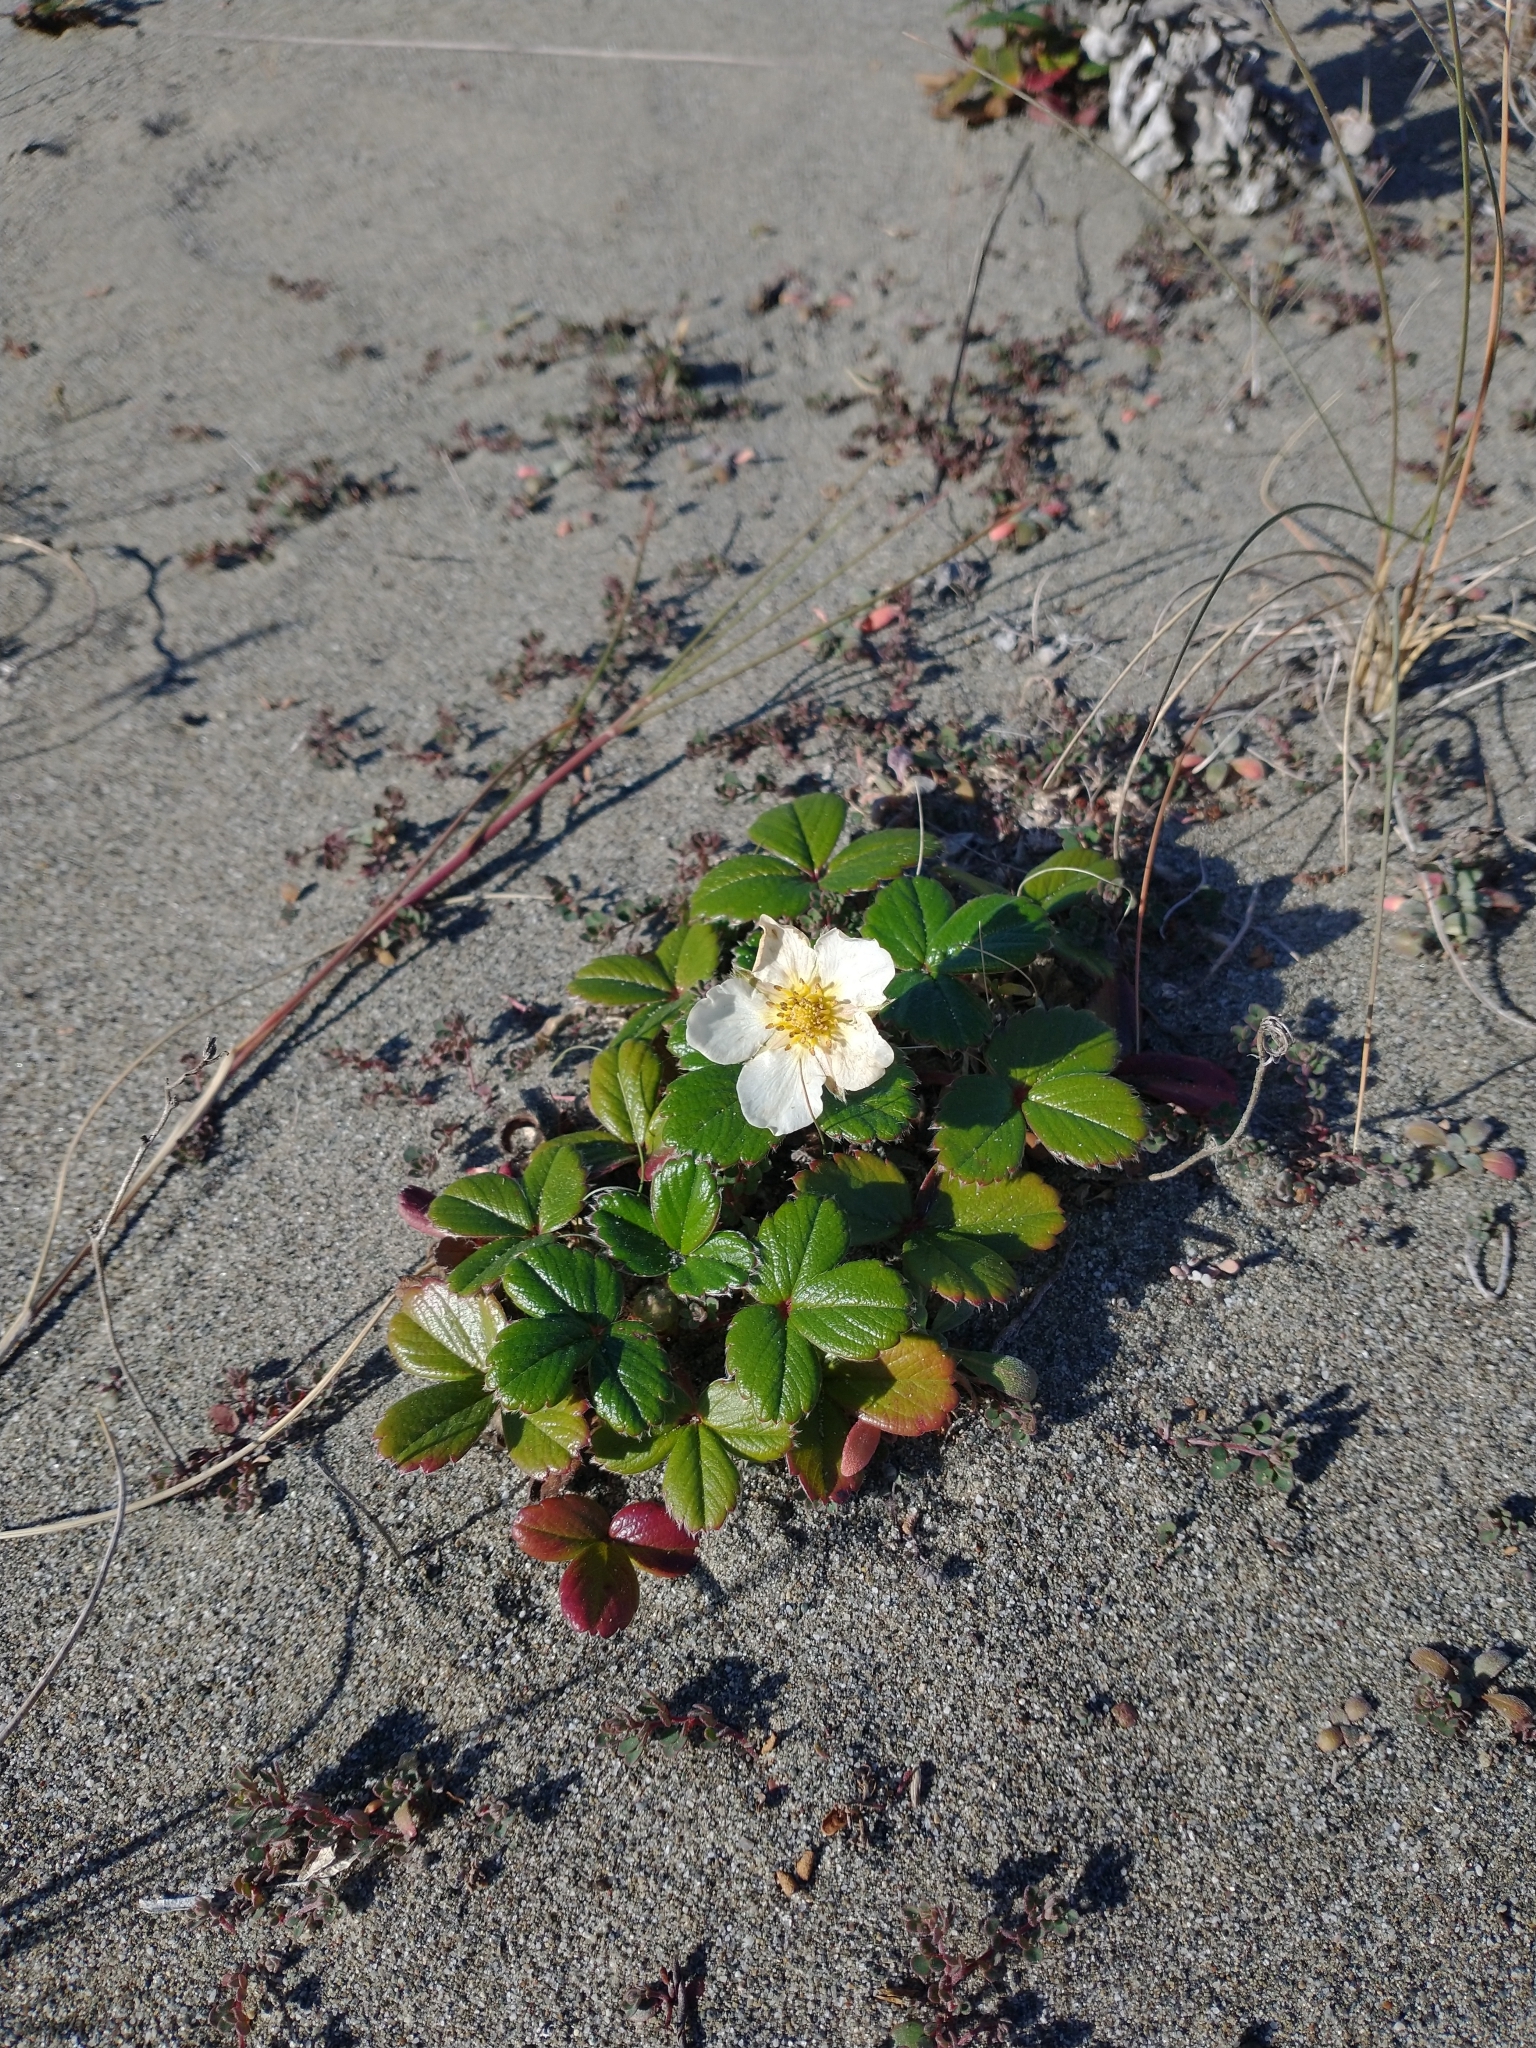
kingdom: Plantae
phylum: Tracheophyta
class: Magnoliopsida
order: Rosales
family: Rosaceae
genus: Fragaria
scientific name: Fragaria chiloensis
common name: Beach strawberry
